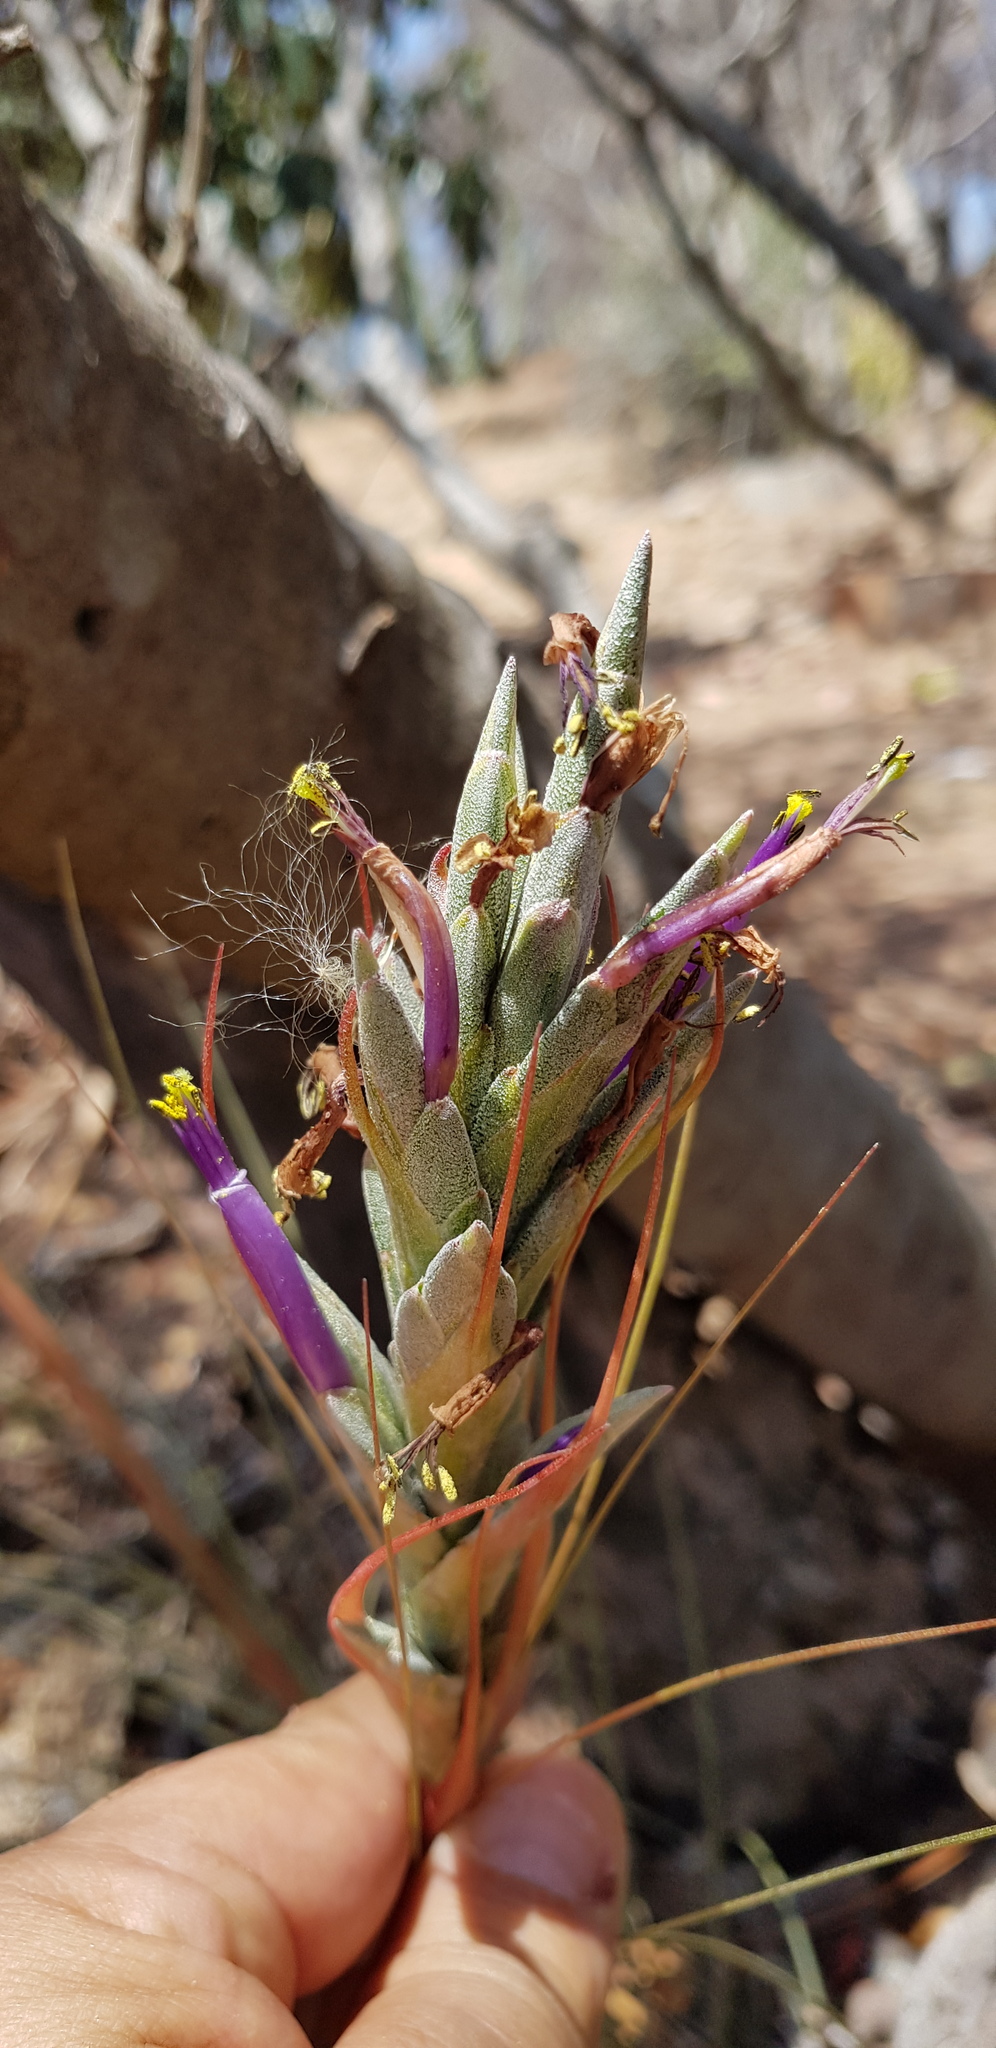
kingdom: Plantae
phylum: Tracheophyta
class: Liliopsida
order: Poales
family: Bromeliaceae
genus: Tillandsia
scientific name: Tillandsia juncea
